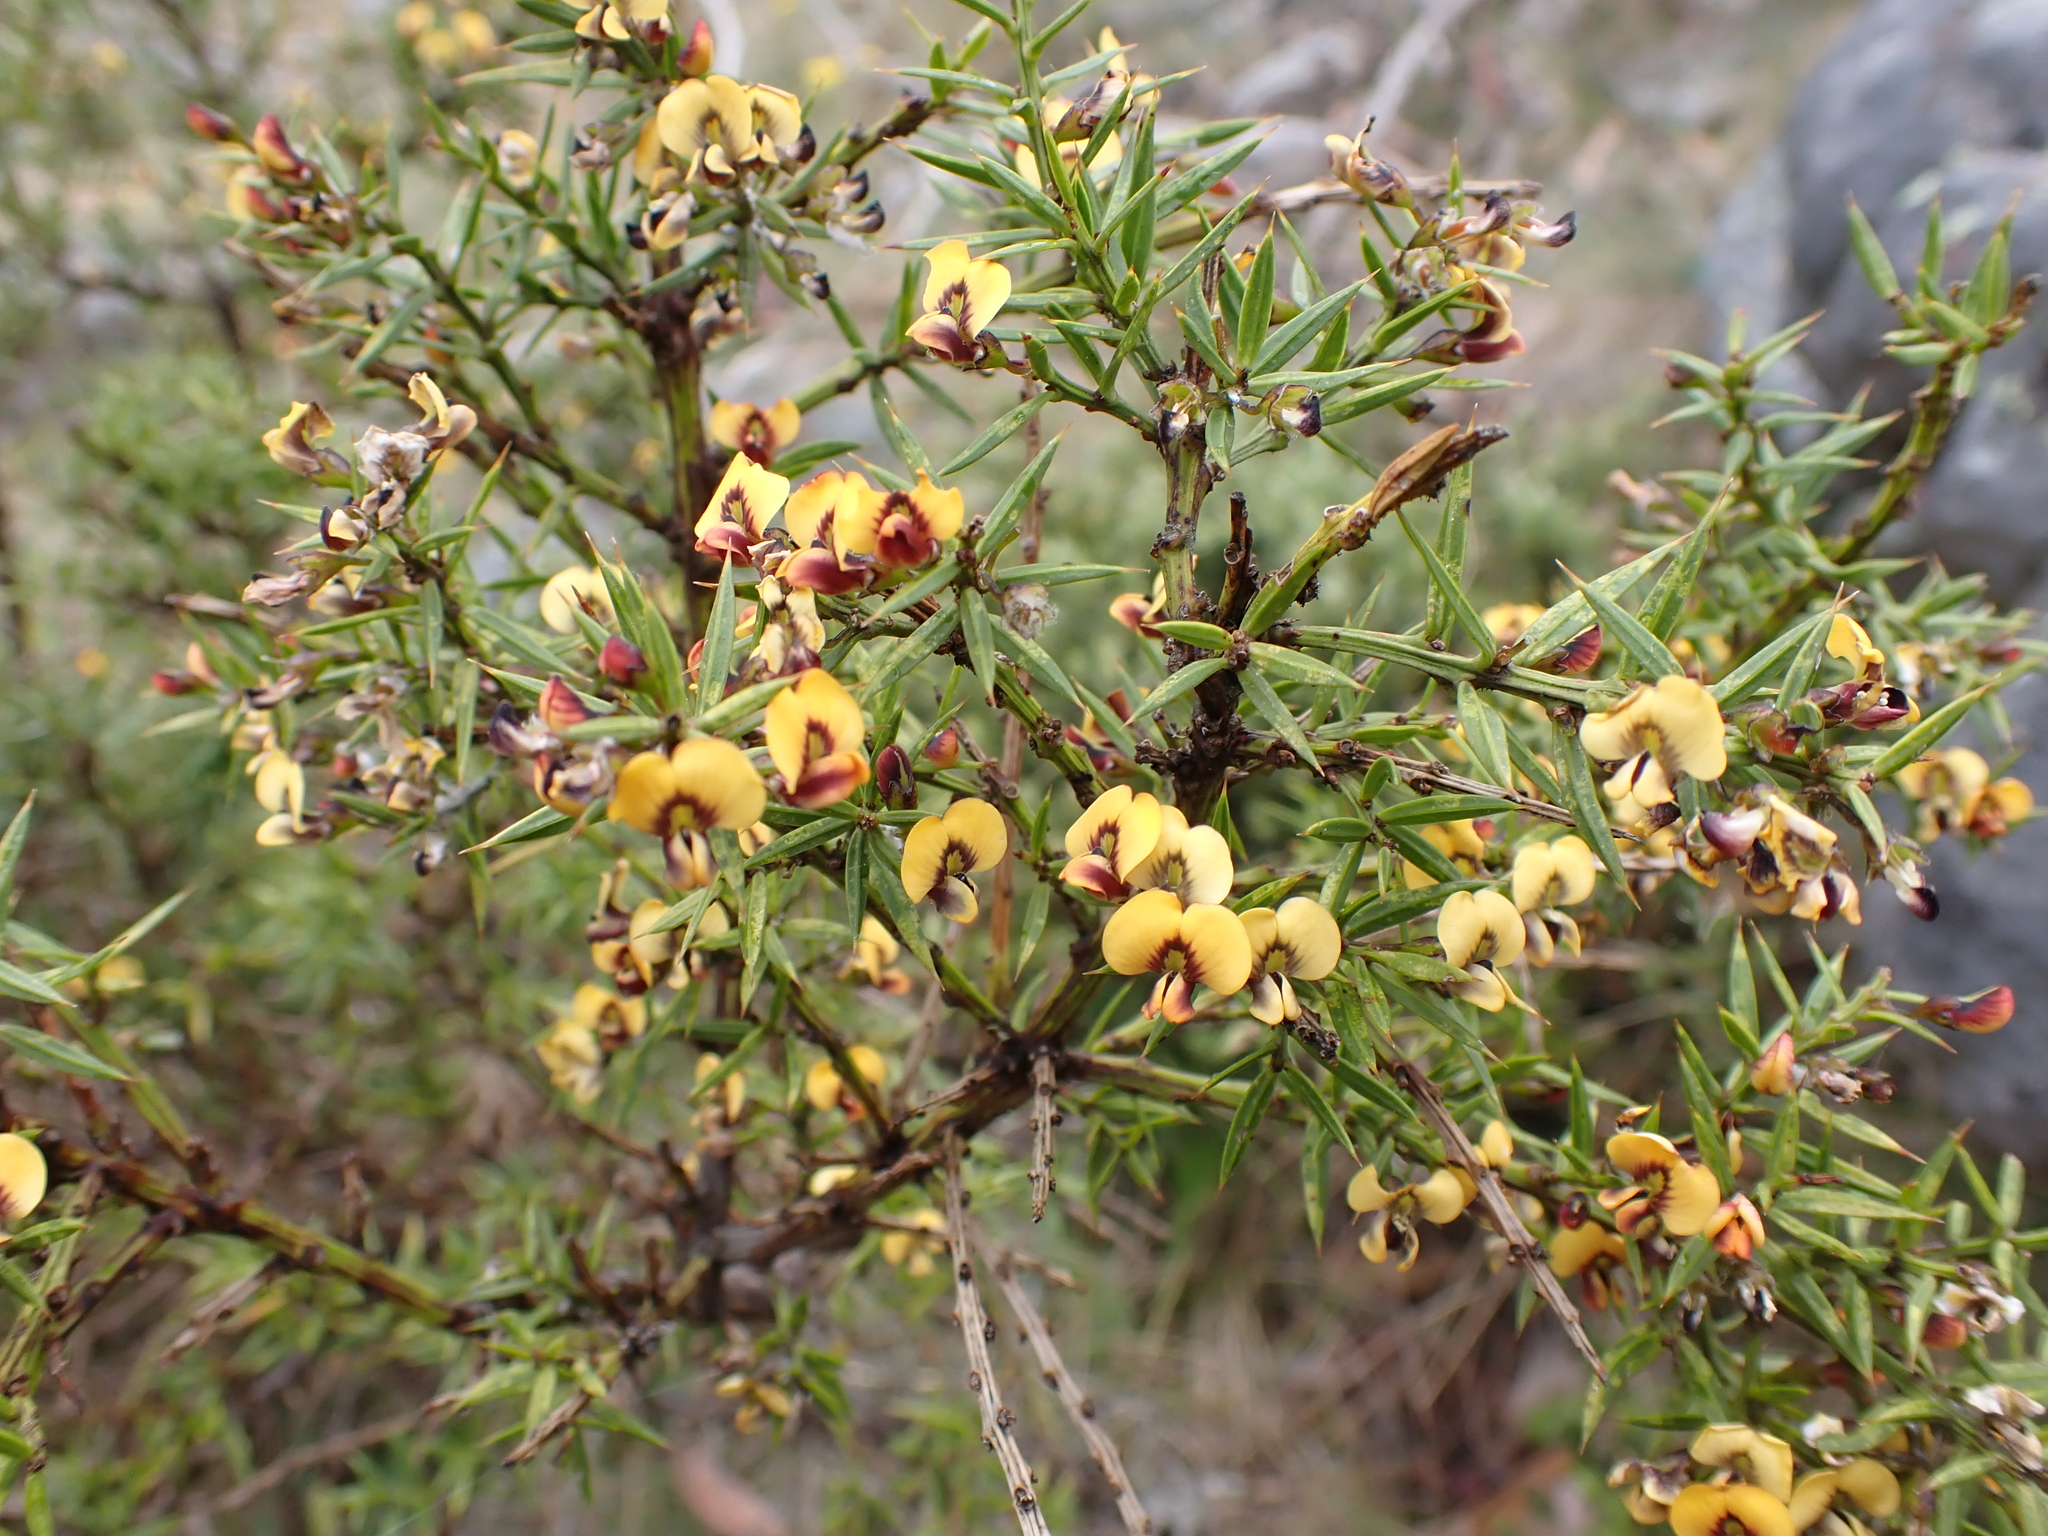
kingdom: Plantae
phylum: Tracheophyta
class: Magnoliopsida
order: Fabales
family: Fabaceae
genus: Daviesia
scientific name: Daviesia ulicifolia
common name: Gorse bitter-pea
